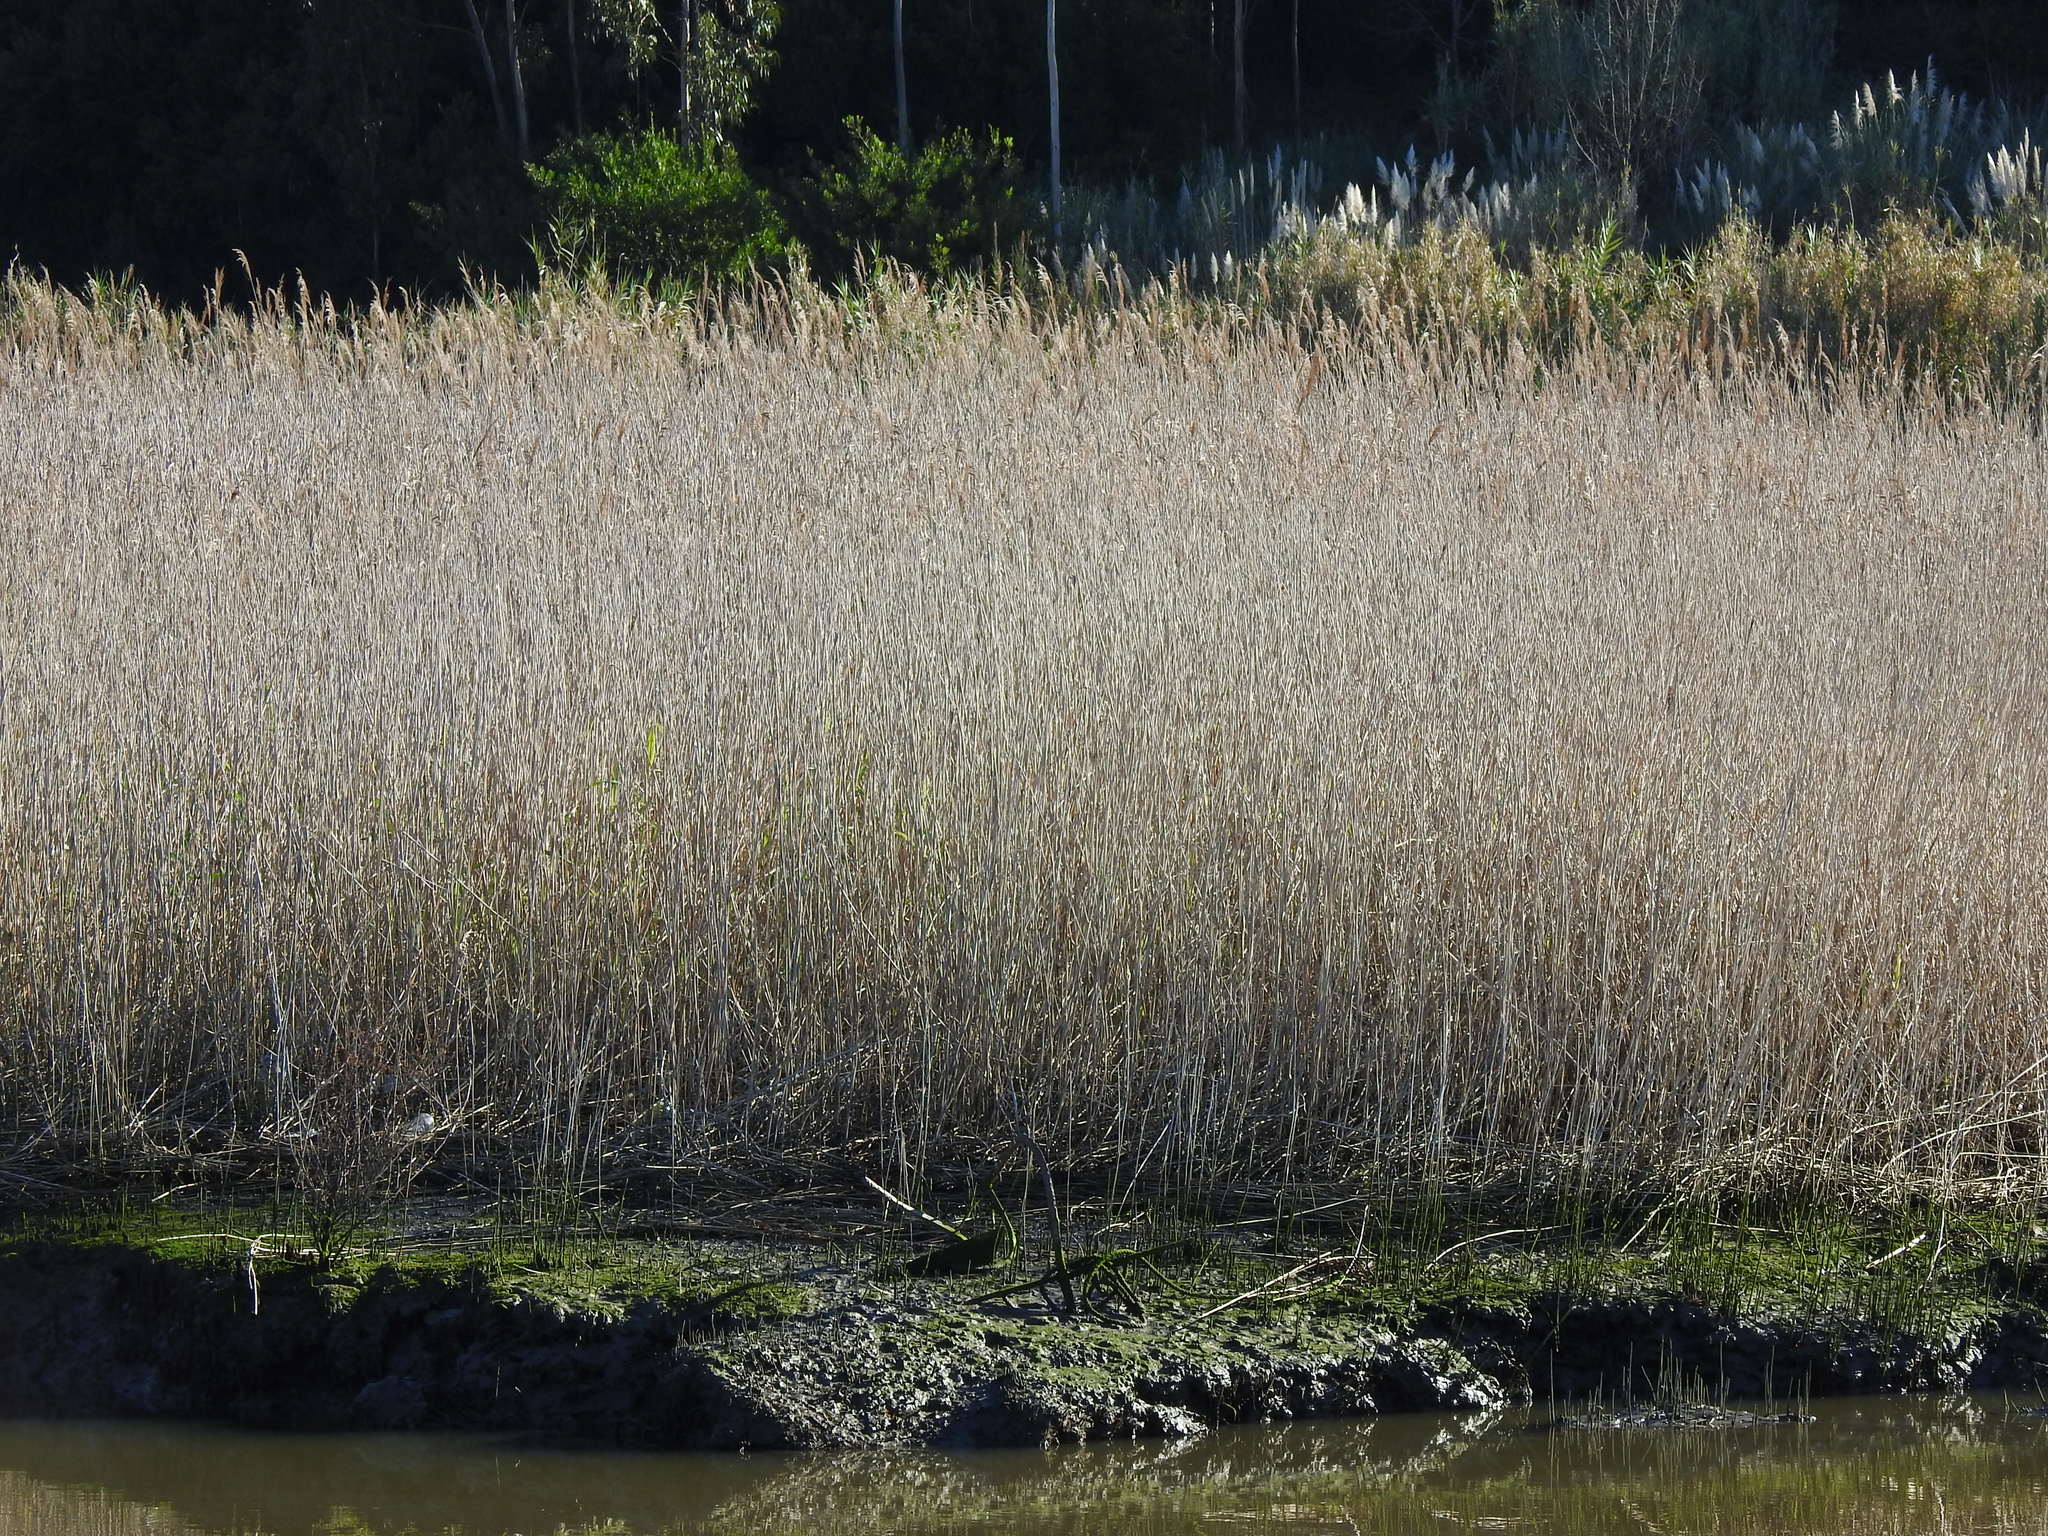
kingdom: Plantae
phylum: Tracheophyta
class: Liliopsida
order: Poales
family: Poaceae
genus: Phragmites
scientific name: Phragmites australis
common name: Common reed
